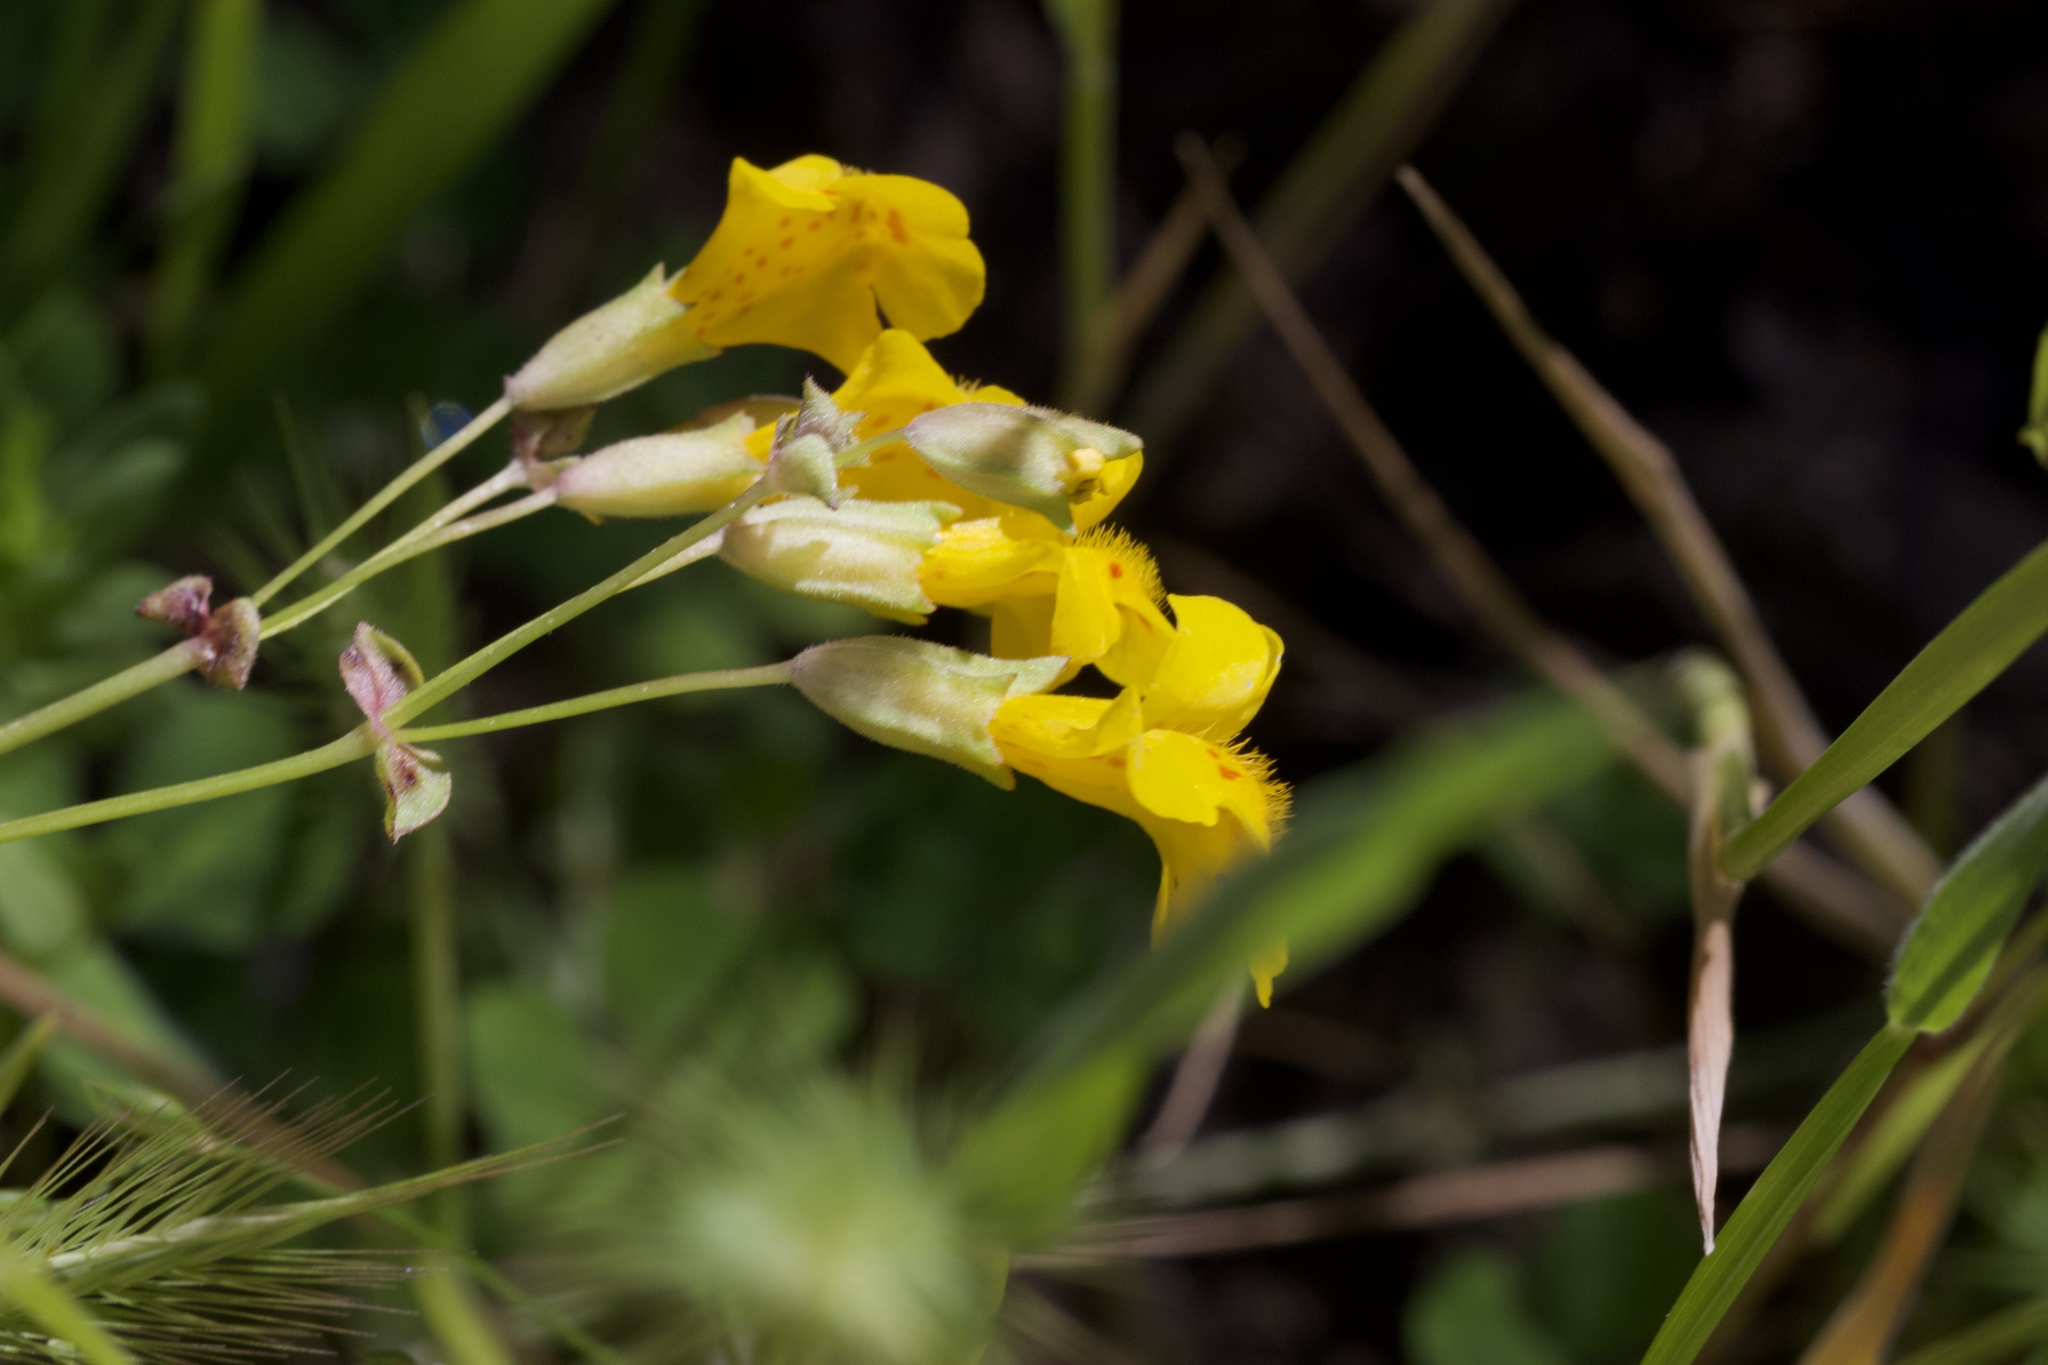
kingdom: Plantae
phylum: Tracheophyta
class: Magnoliopsida
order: Lamiales
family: Phrymaceae
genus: Erythranthe
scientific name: Erythranthe guttata
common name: Monkeyflower
